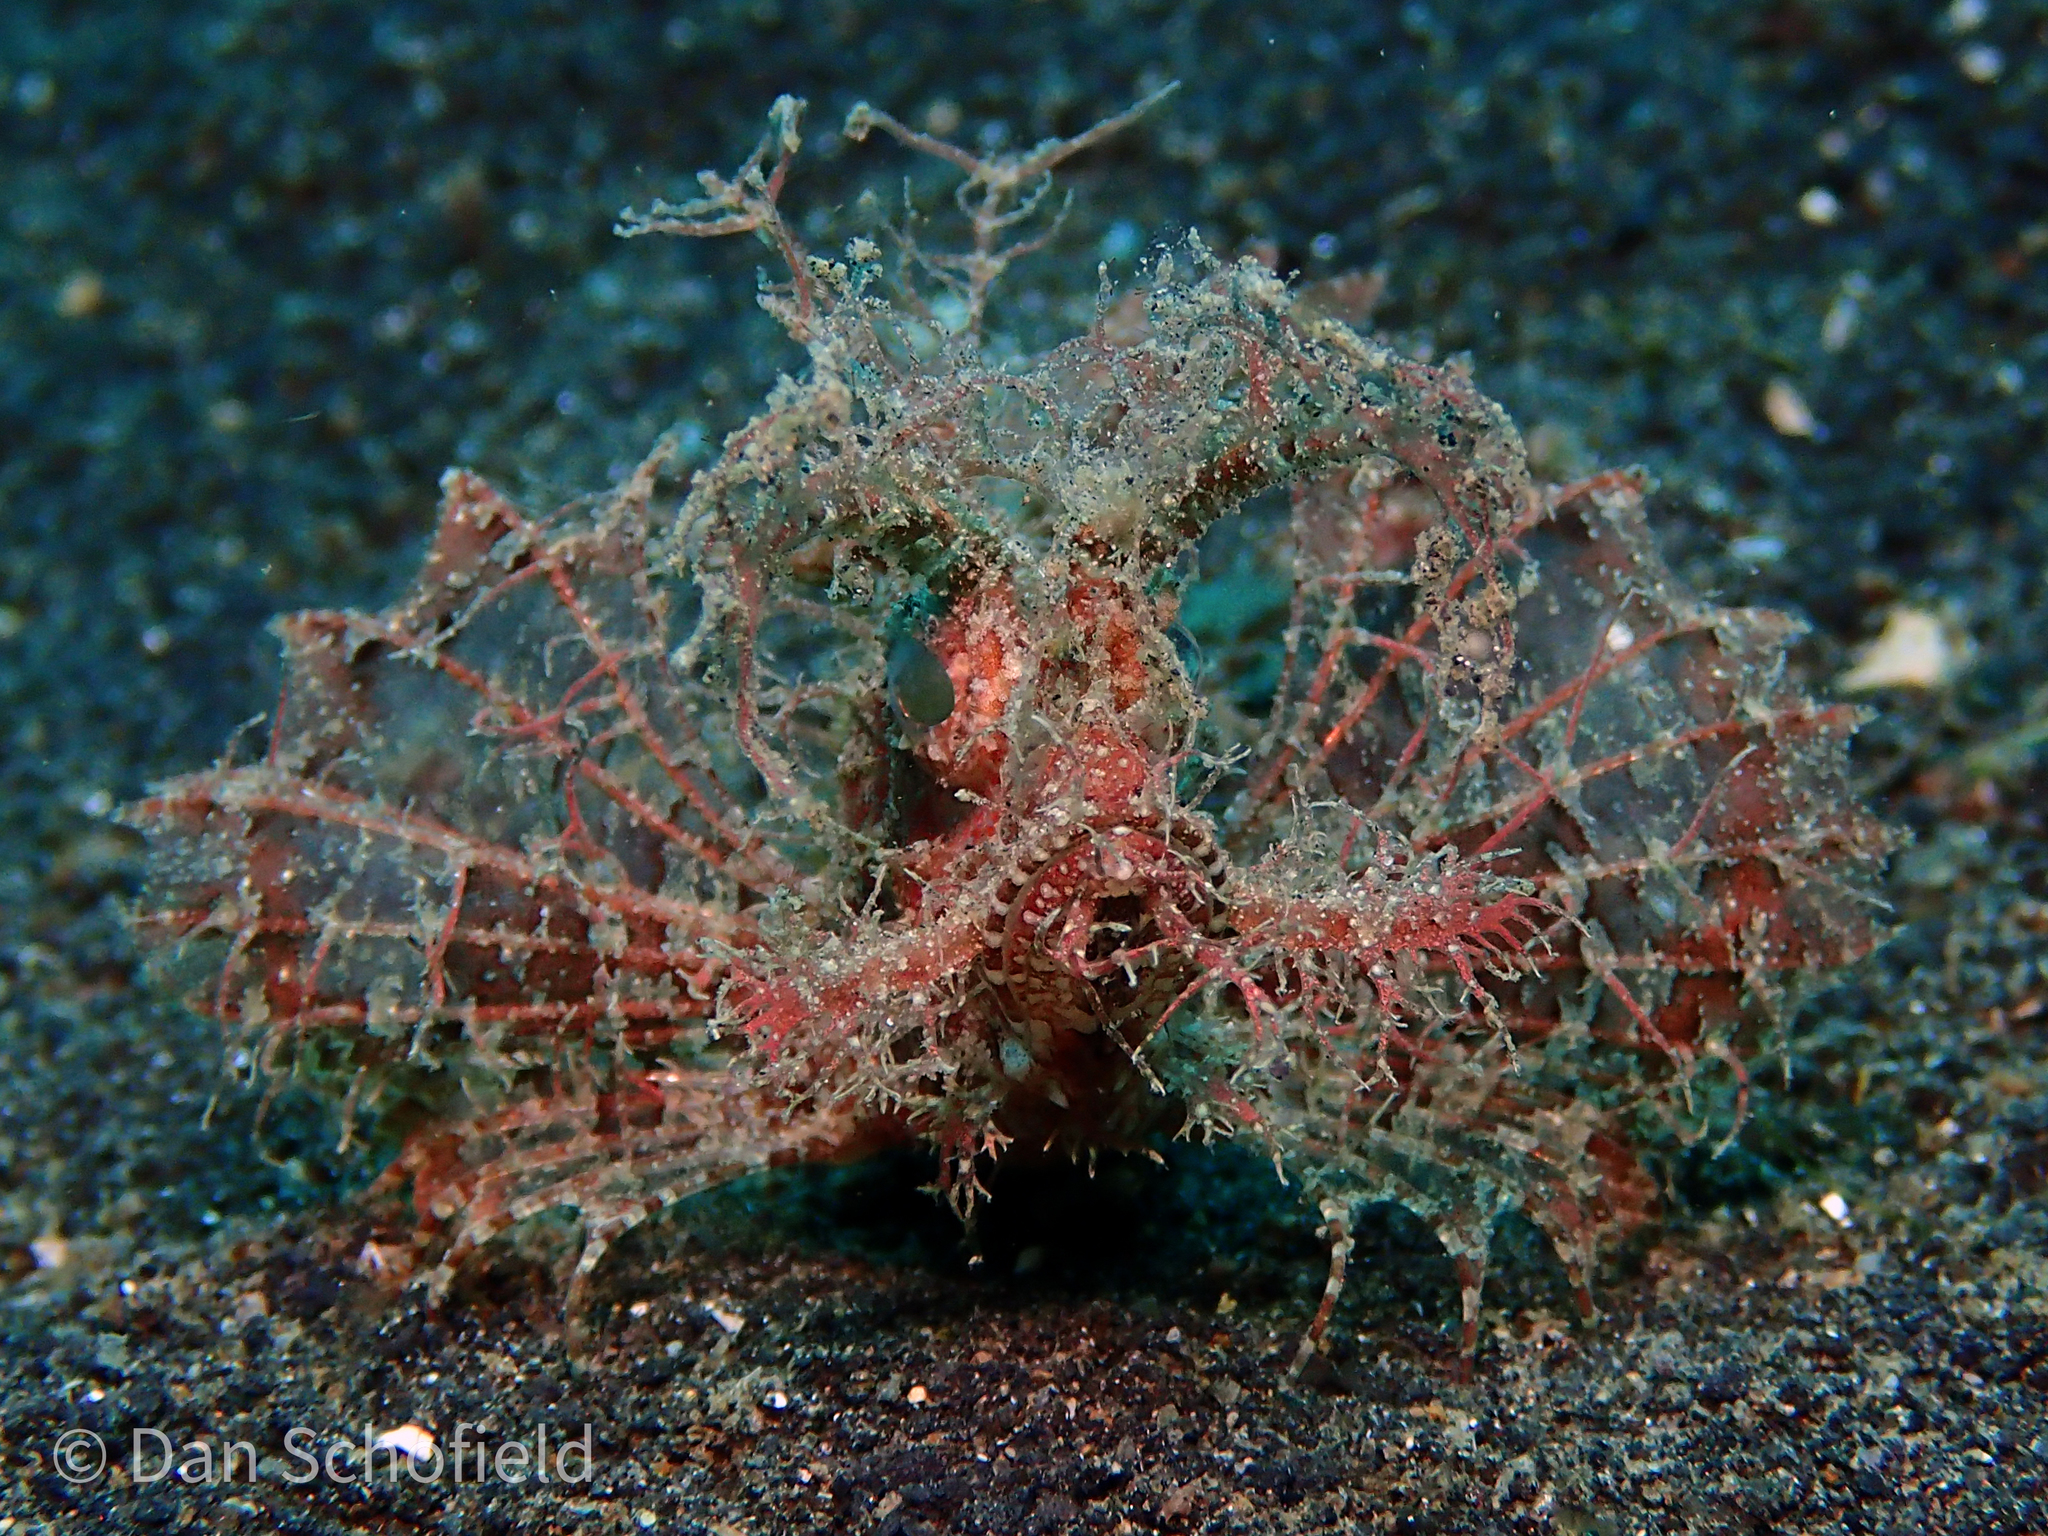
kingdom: Animalia
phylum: Chordata
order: Scorpaeniformes
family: Scorpaenidae
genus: Pteroidichthys
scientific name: Pteroidichthys amboinensis
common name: Ambon scorpionfish
